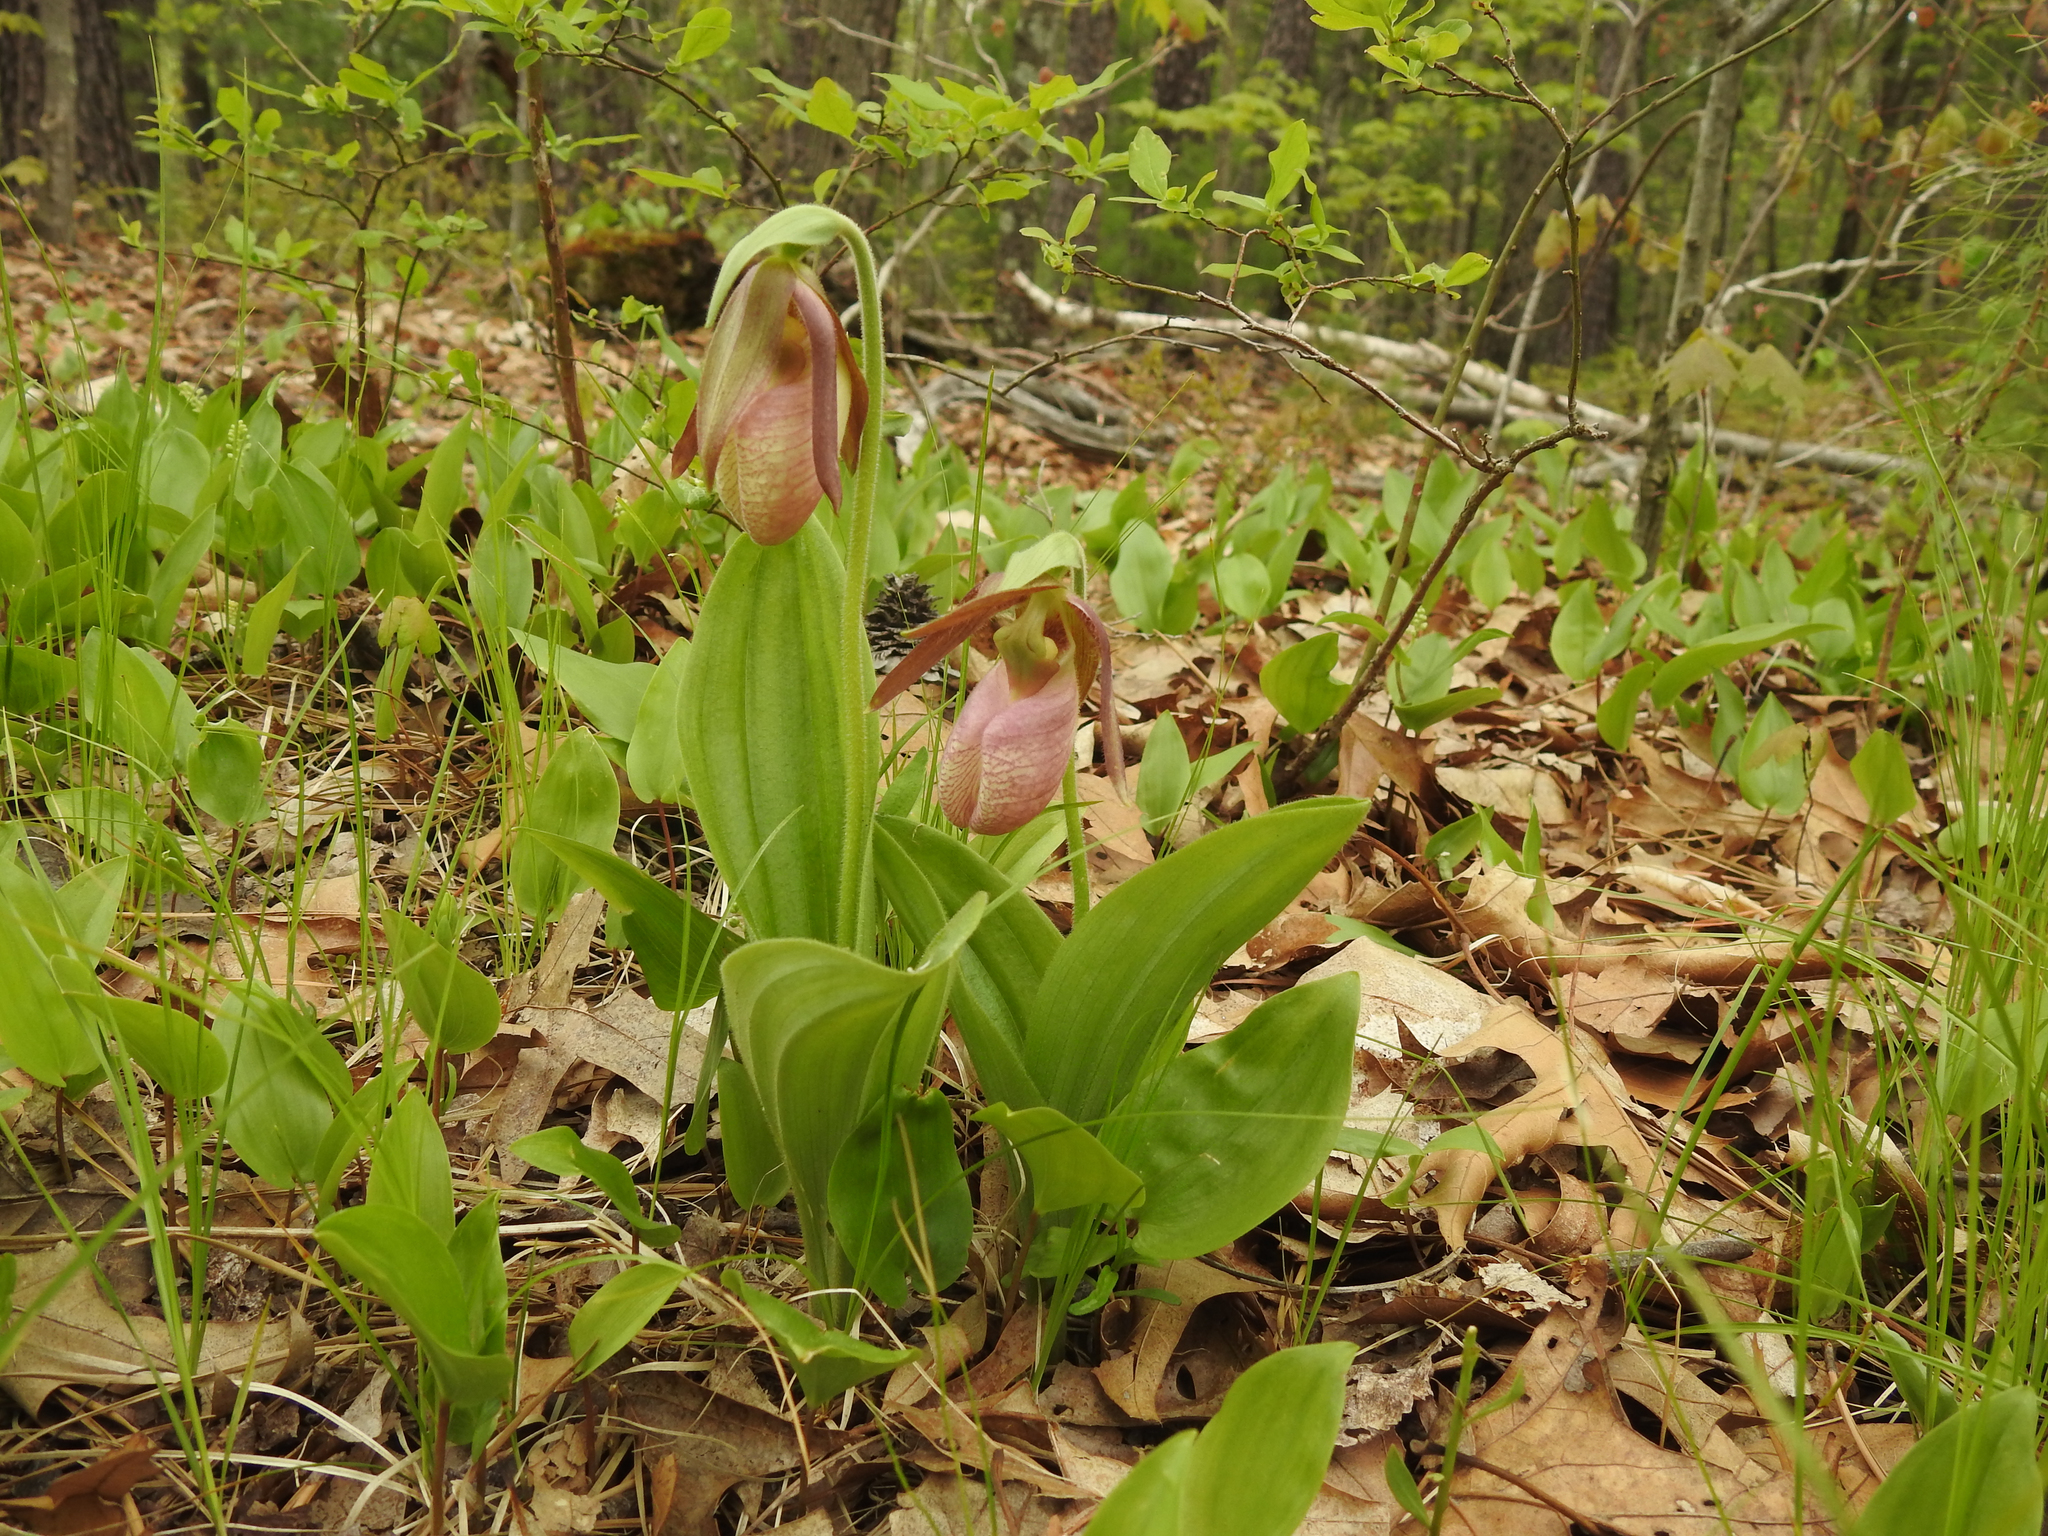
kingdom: Plantae
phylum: Tracheophyta
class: Liliopsida
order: Asparagales
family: Orchidaceae
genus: Cypripedium
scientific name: Cypripedium acaule
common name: Pink lady's-slipper
